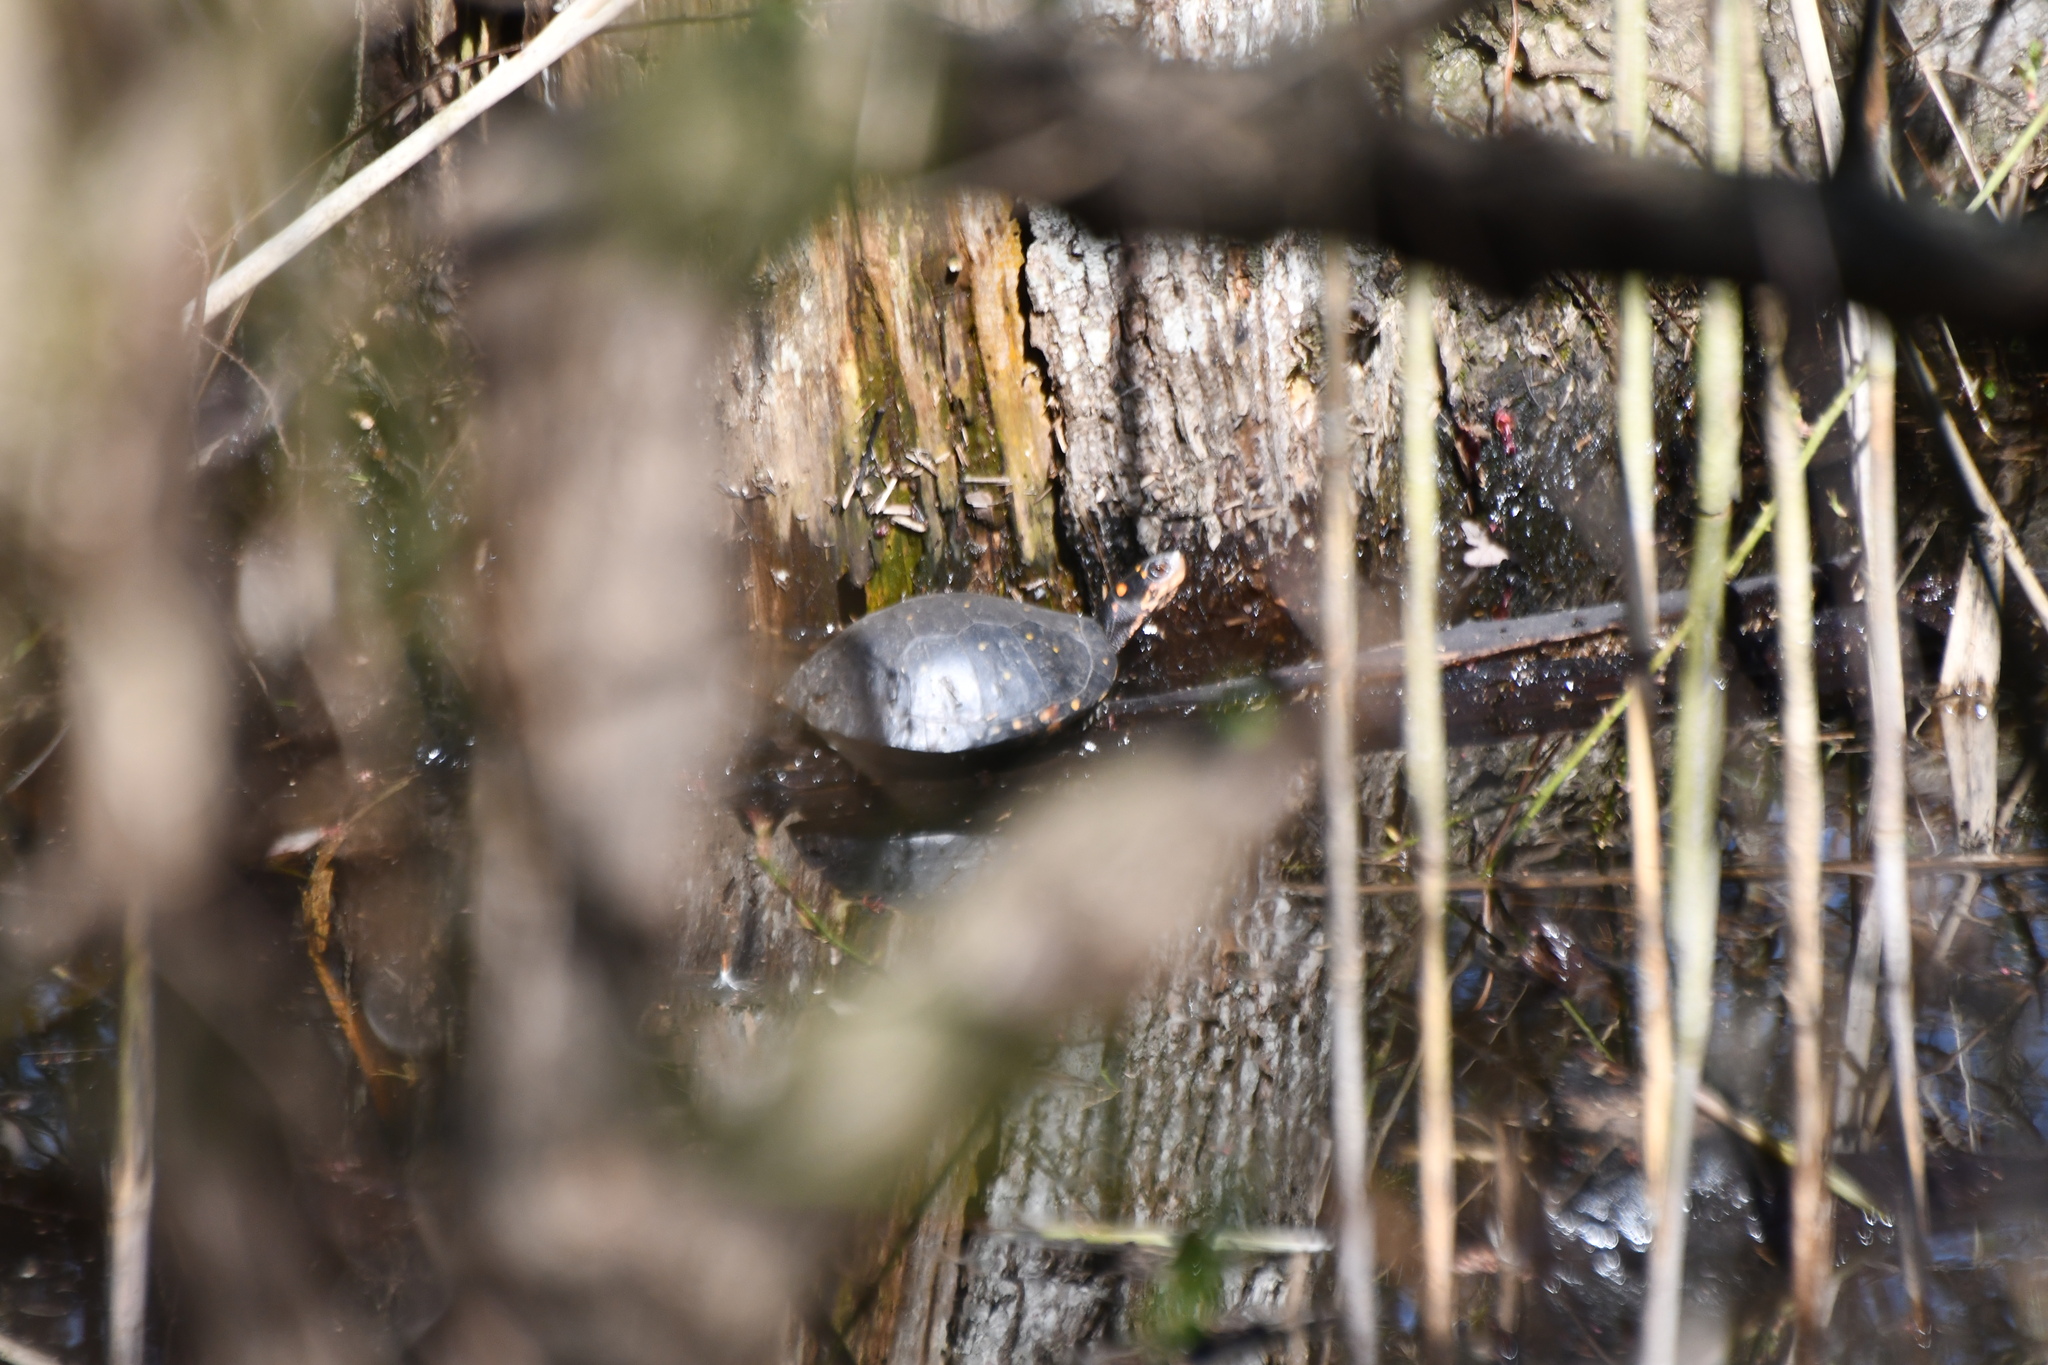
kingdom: Animalia
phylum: Chordata
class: Testudines
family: Emydidae
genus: Clemmys
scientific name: Clemmys guttata
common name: Spotted turtle
